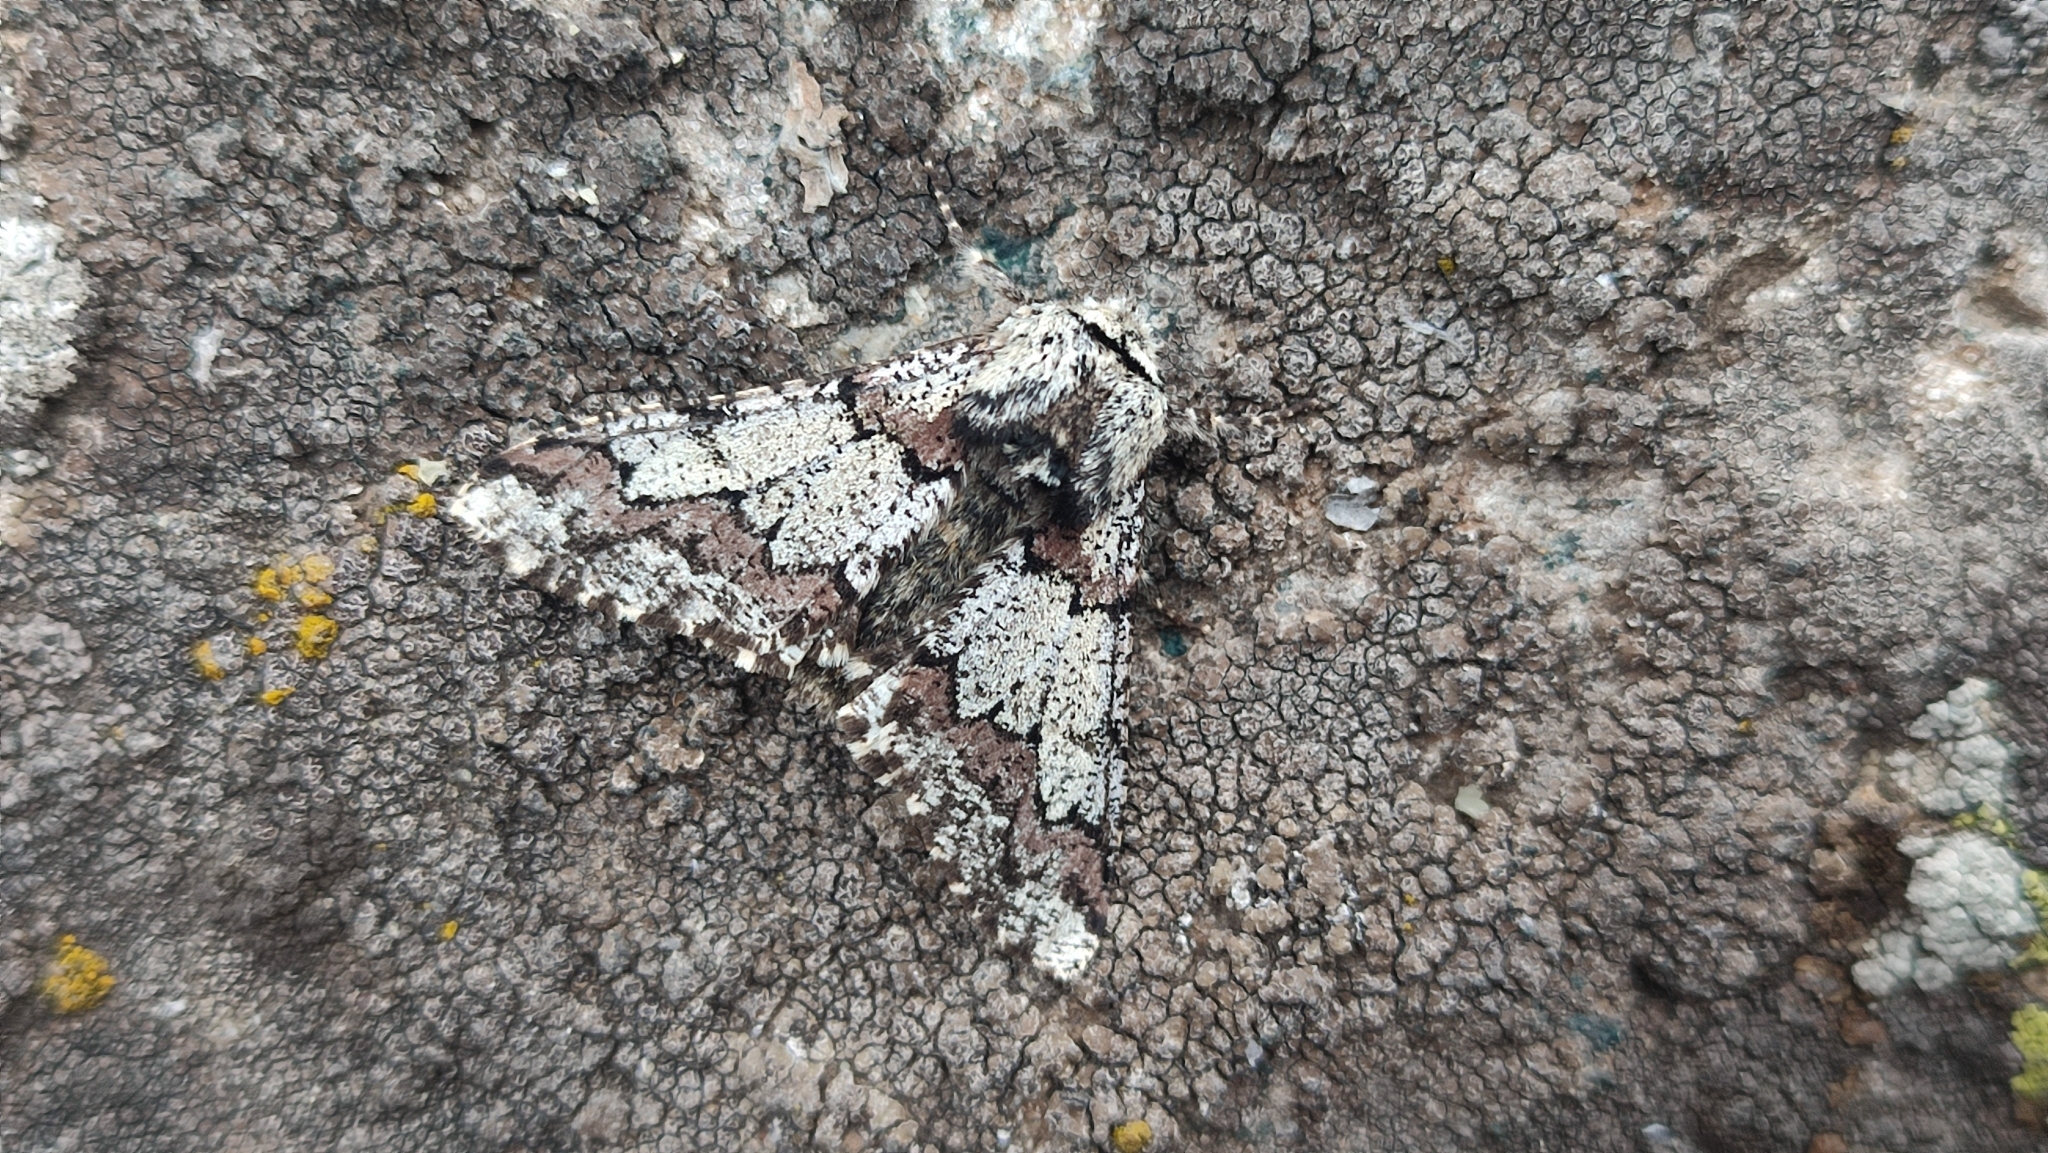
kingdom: Animalia
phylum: Arthropoda
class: Insecta
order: Lepidoptera
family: Geometridae
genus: Biston
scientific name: Biston strataria
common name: Oak beauty
